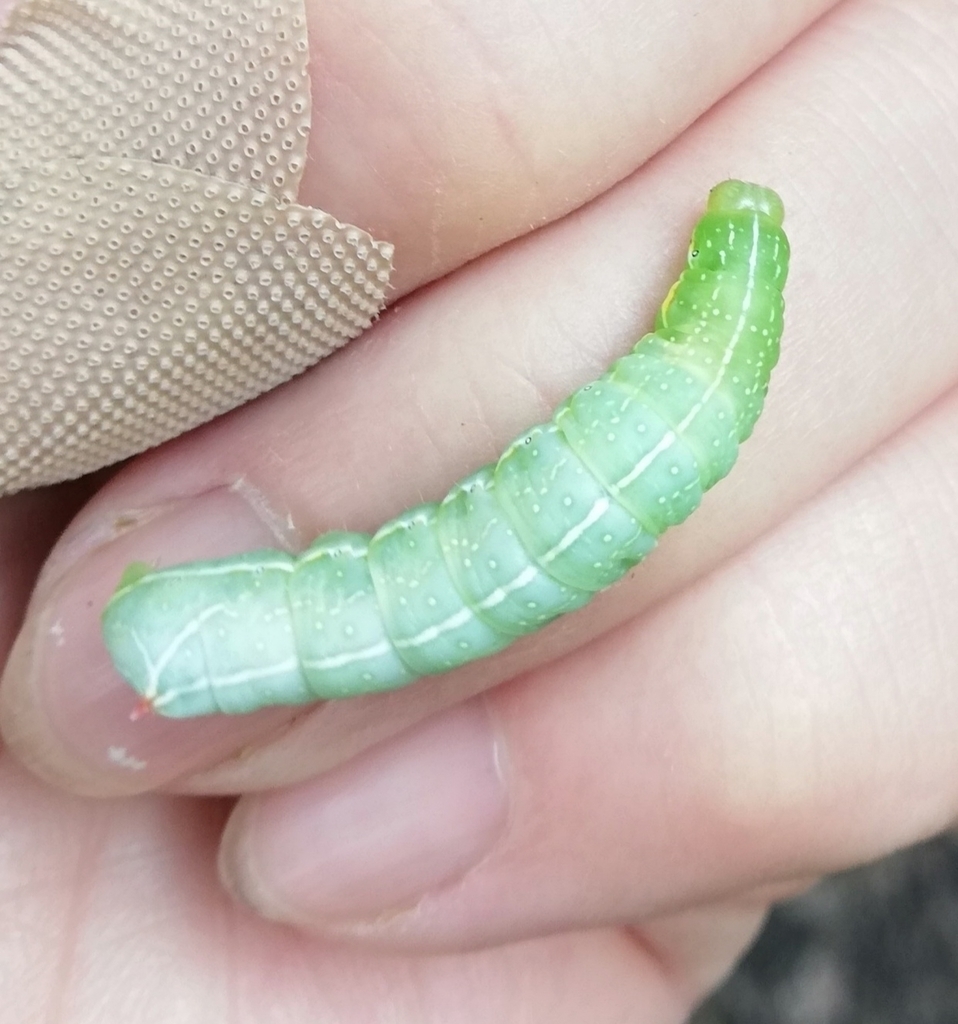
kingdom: Animalia
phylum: Arthropoda
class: Insecta
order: Lepidoptera
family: Noctuidae
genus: Amphipyra
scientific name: Amphipyra berbera
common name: Svensson's copper underwing
